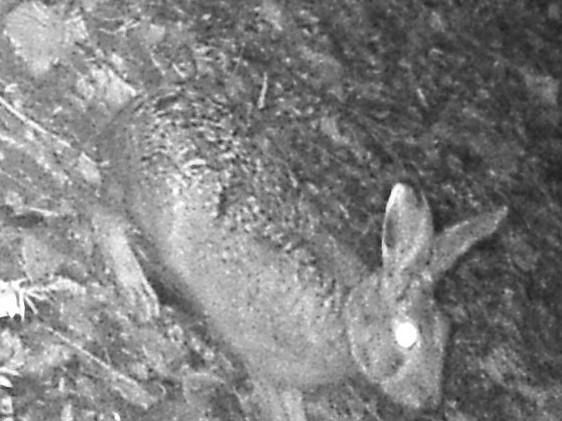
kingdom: Animalia
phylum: Chordata
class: Mammalia
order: Lagomorpha
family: Leporidae
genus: Lepus
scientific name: Lepus europaeus
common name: European hare
